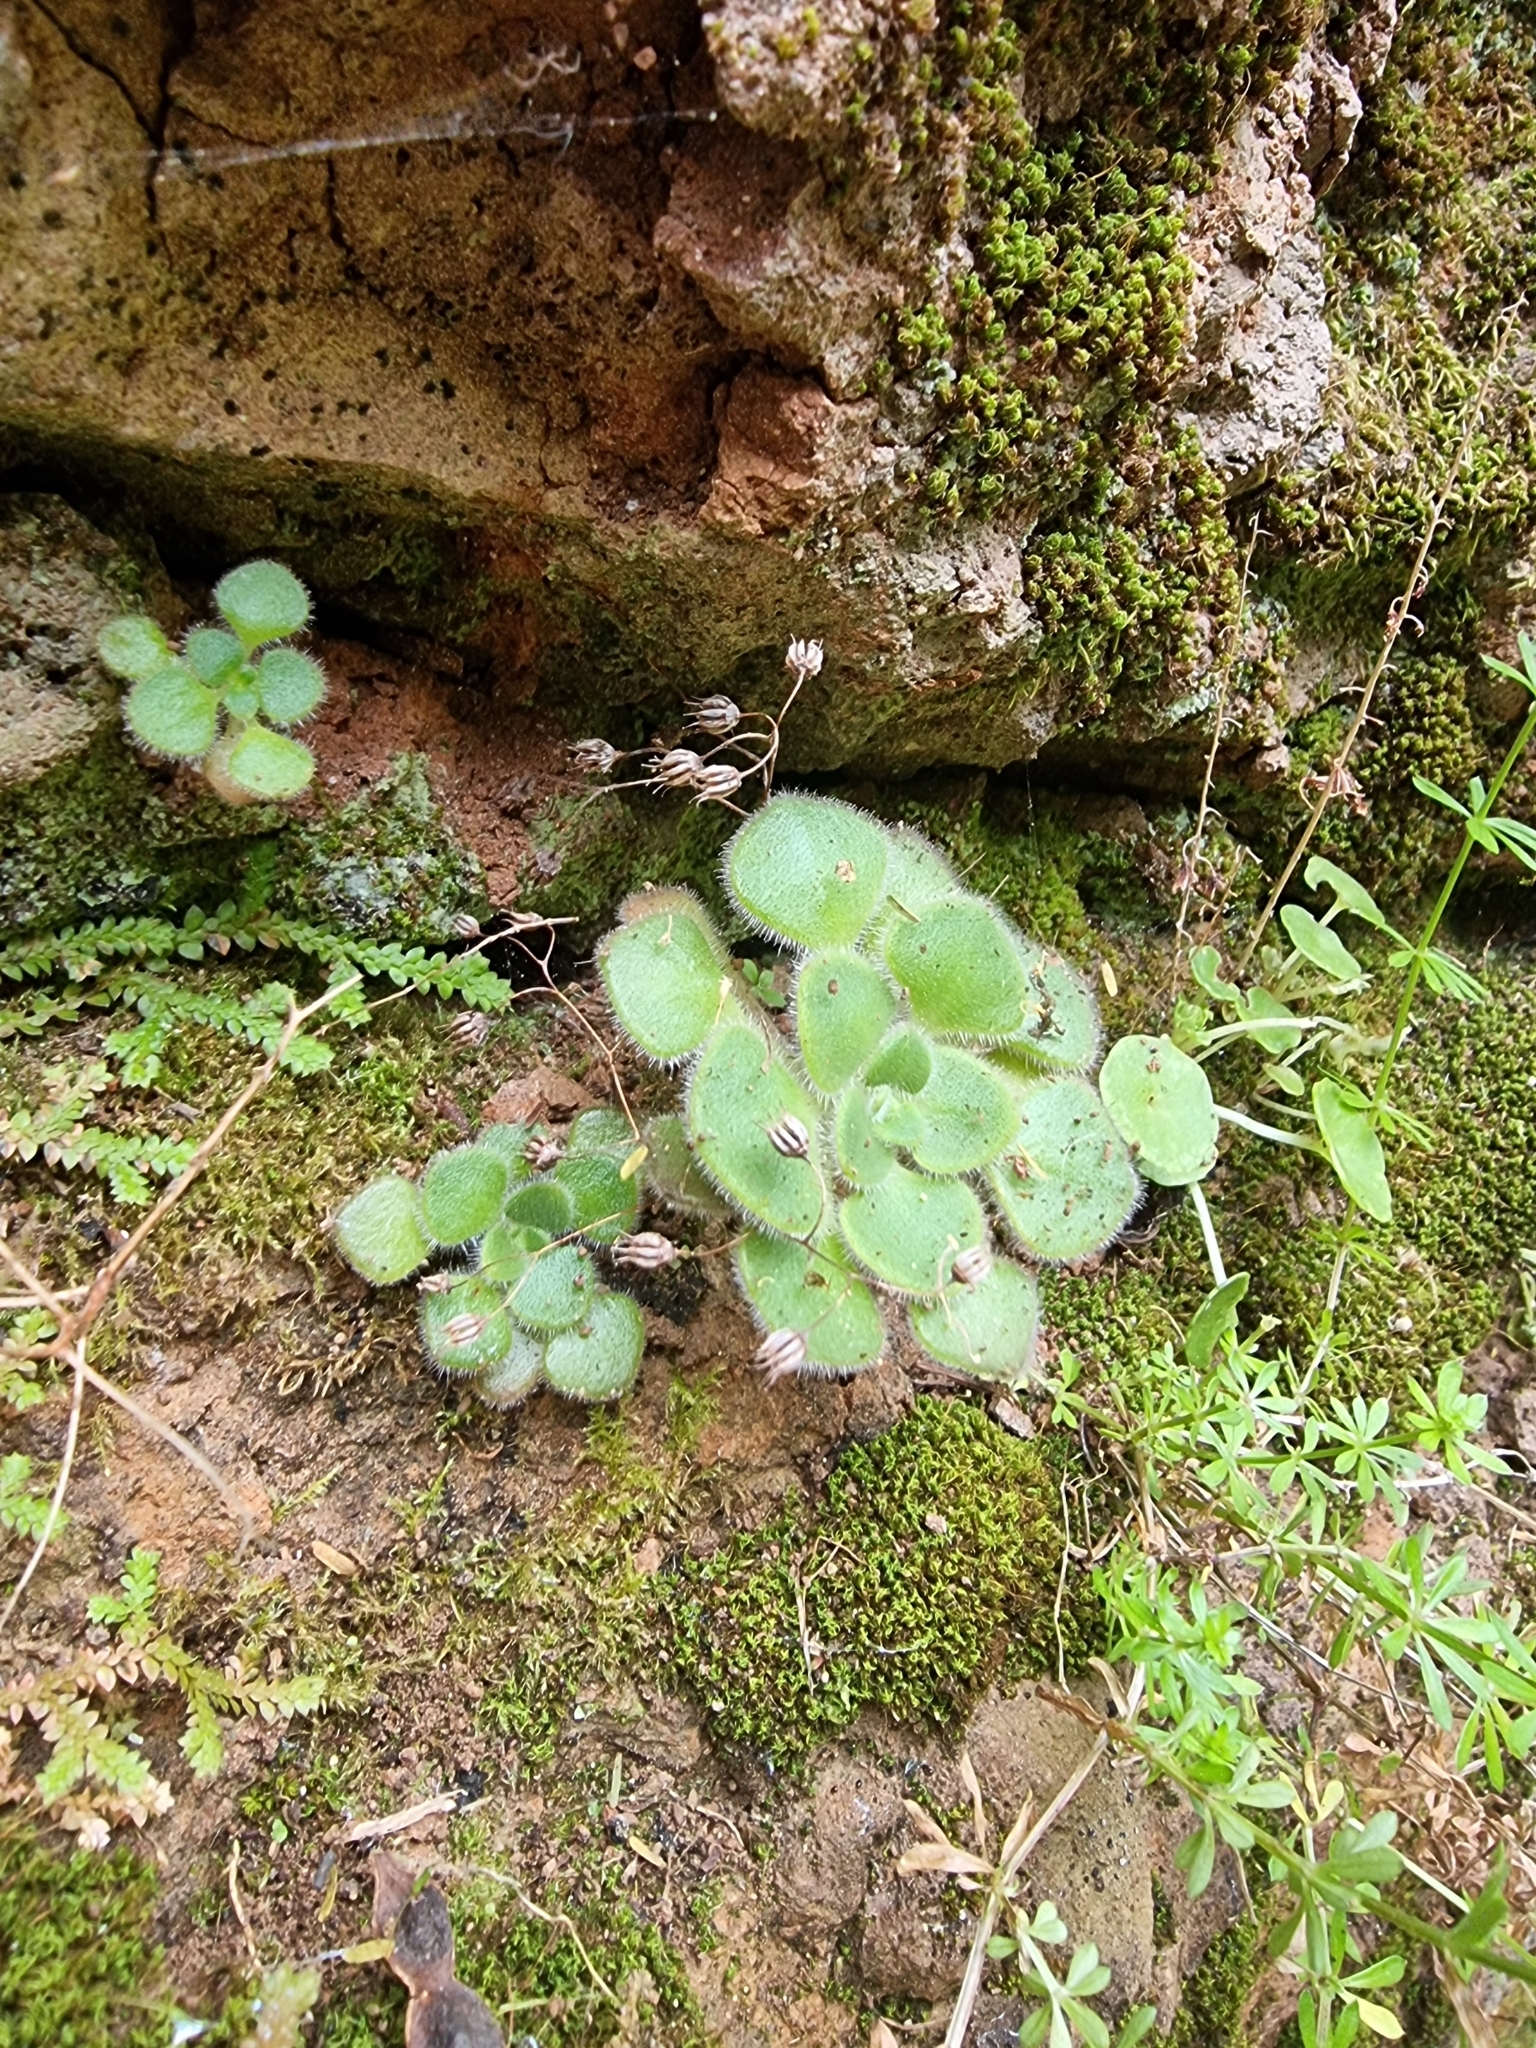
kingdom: Plantae
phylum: Tracheophyta
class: Magnoliopsida
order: Saxifragales
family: Crassulaceae
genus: Aichryson
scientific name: Aichryson villosum
